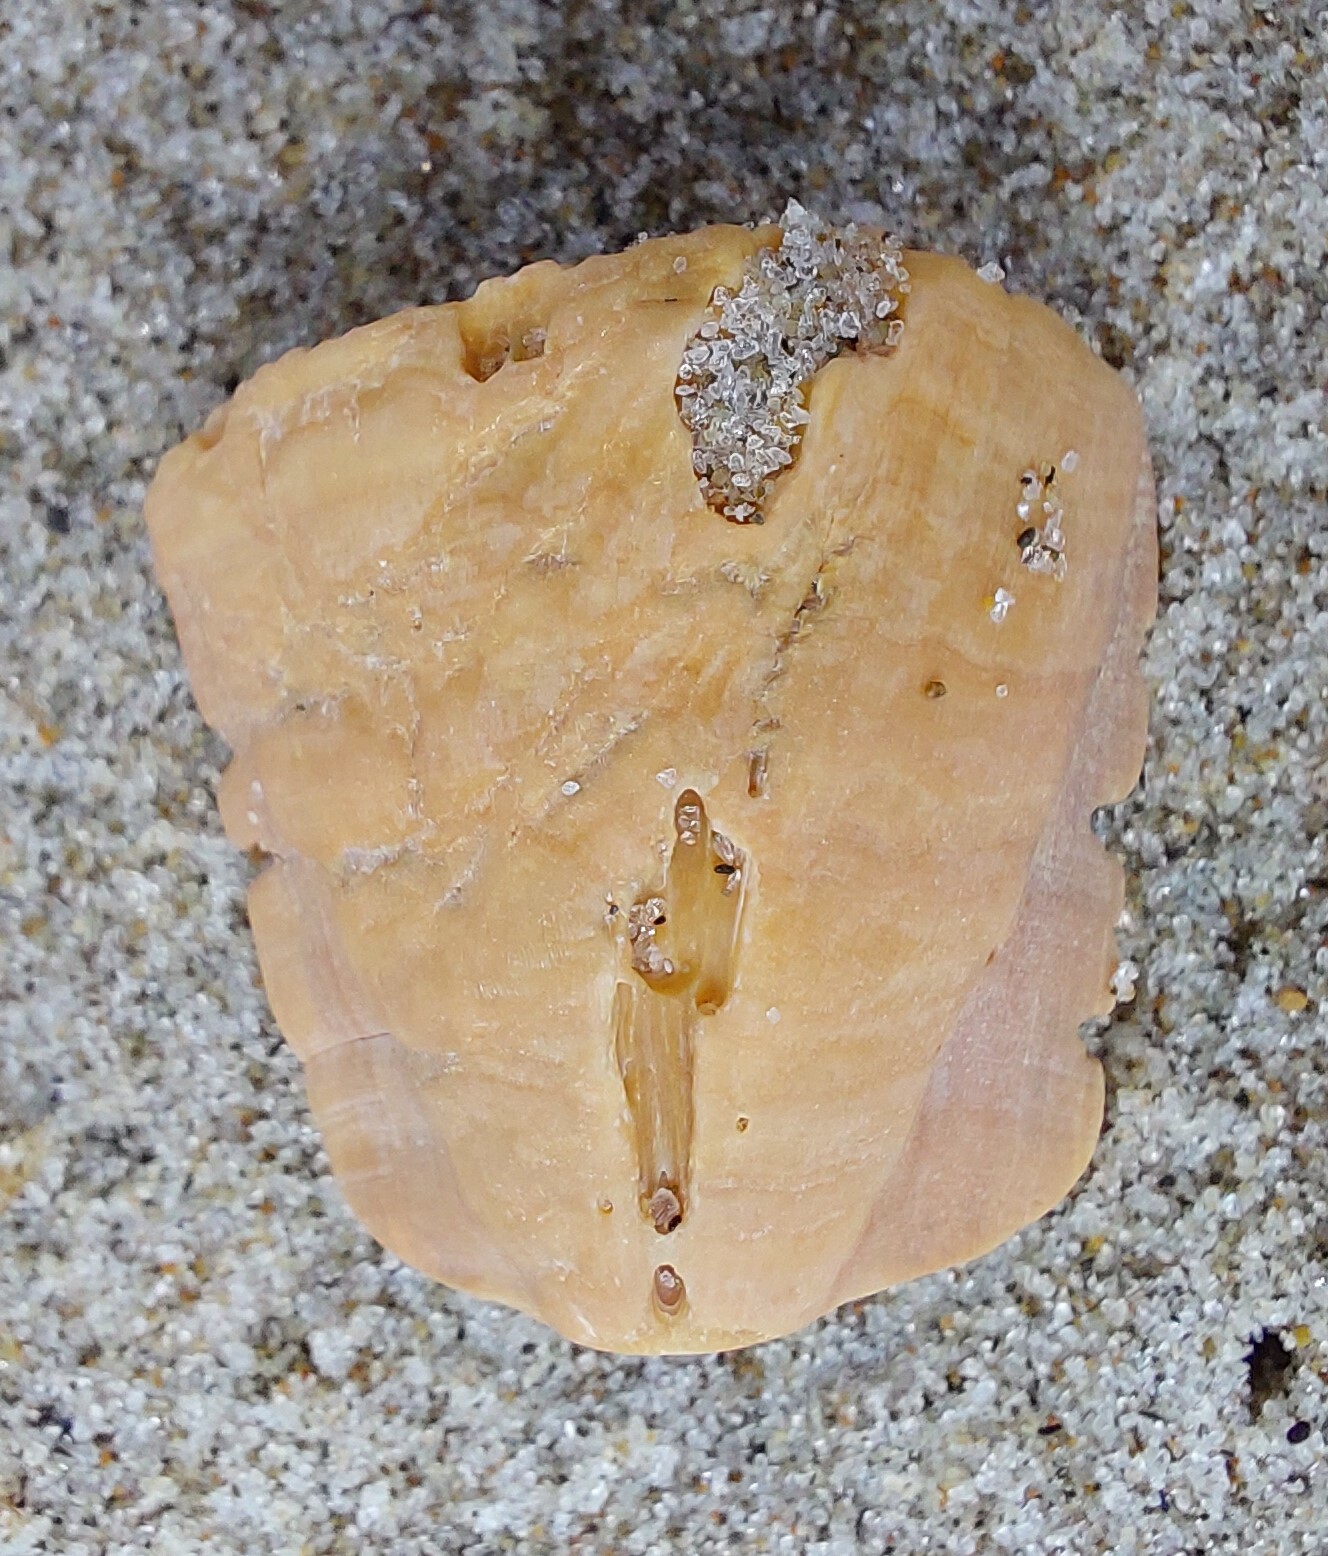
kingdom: Animalia
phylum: Arthropoda
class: Maxillopoda
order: Sessilia
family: Balanidae
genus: Notomegabalanus
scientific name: Notomegabalanus decorus
